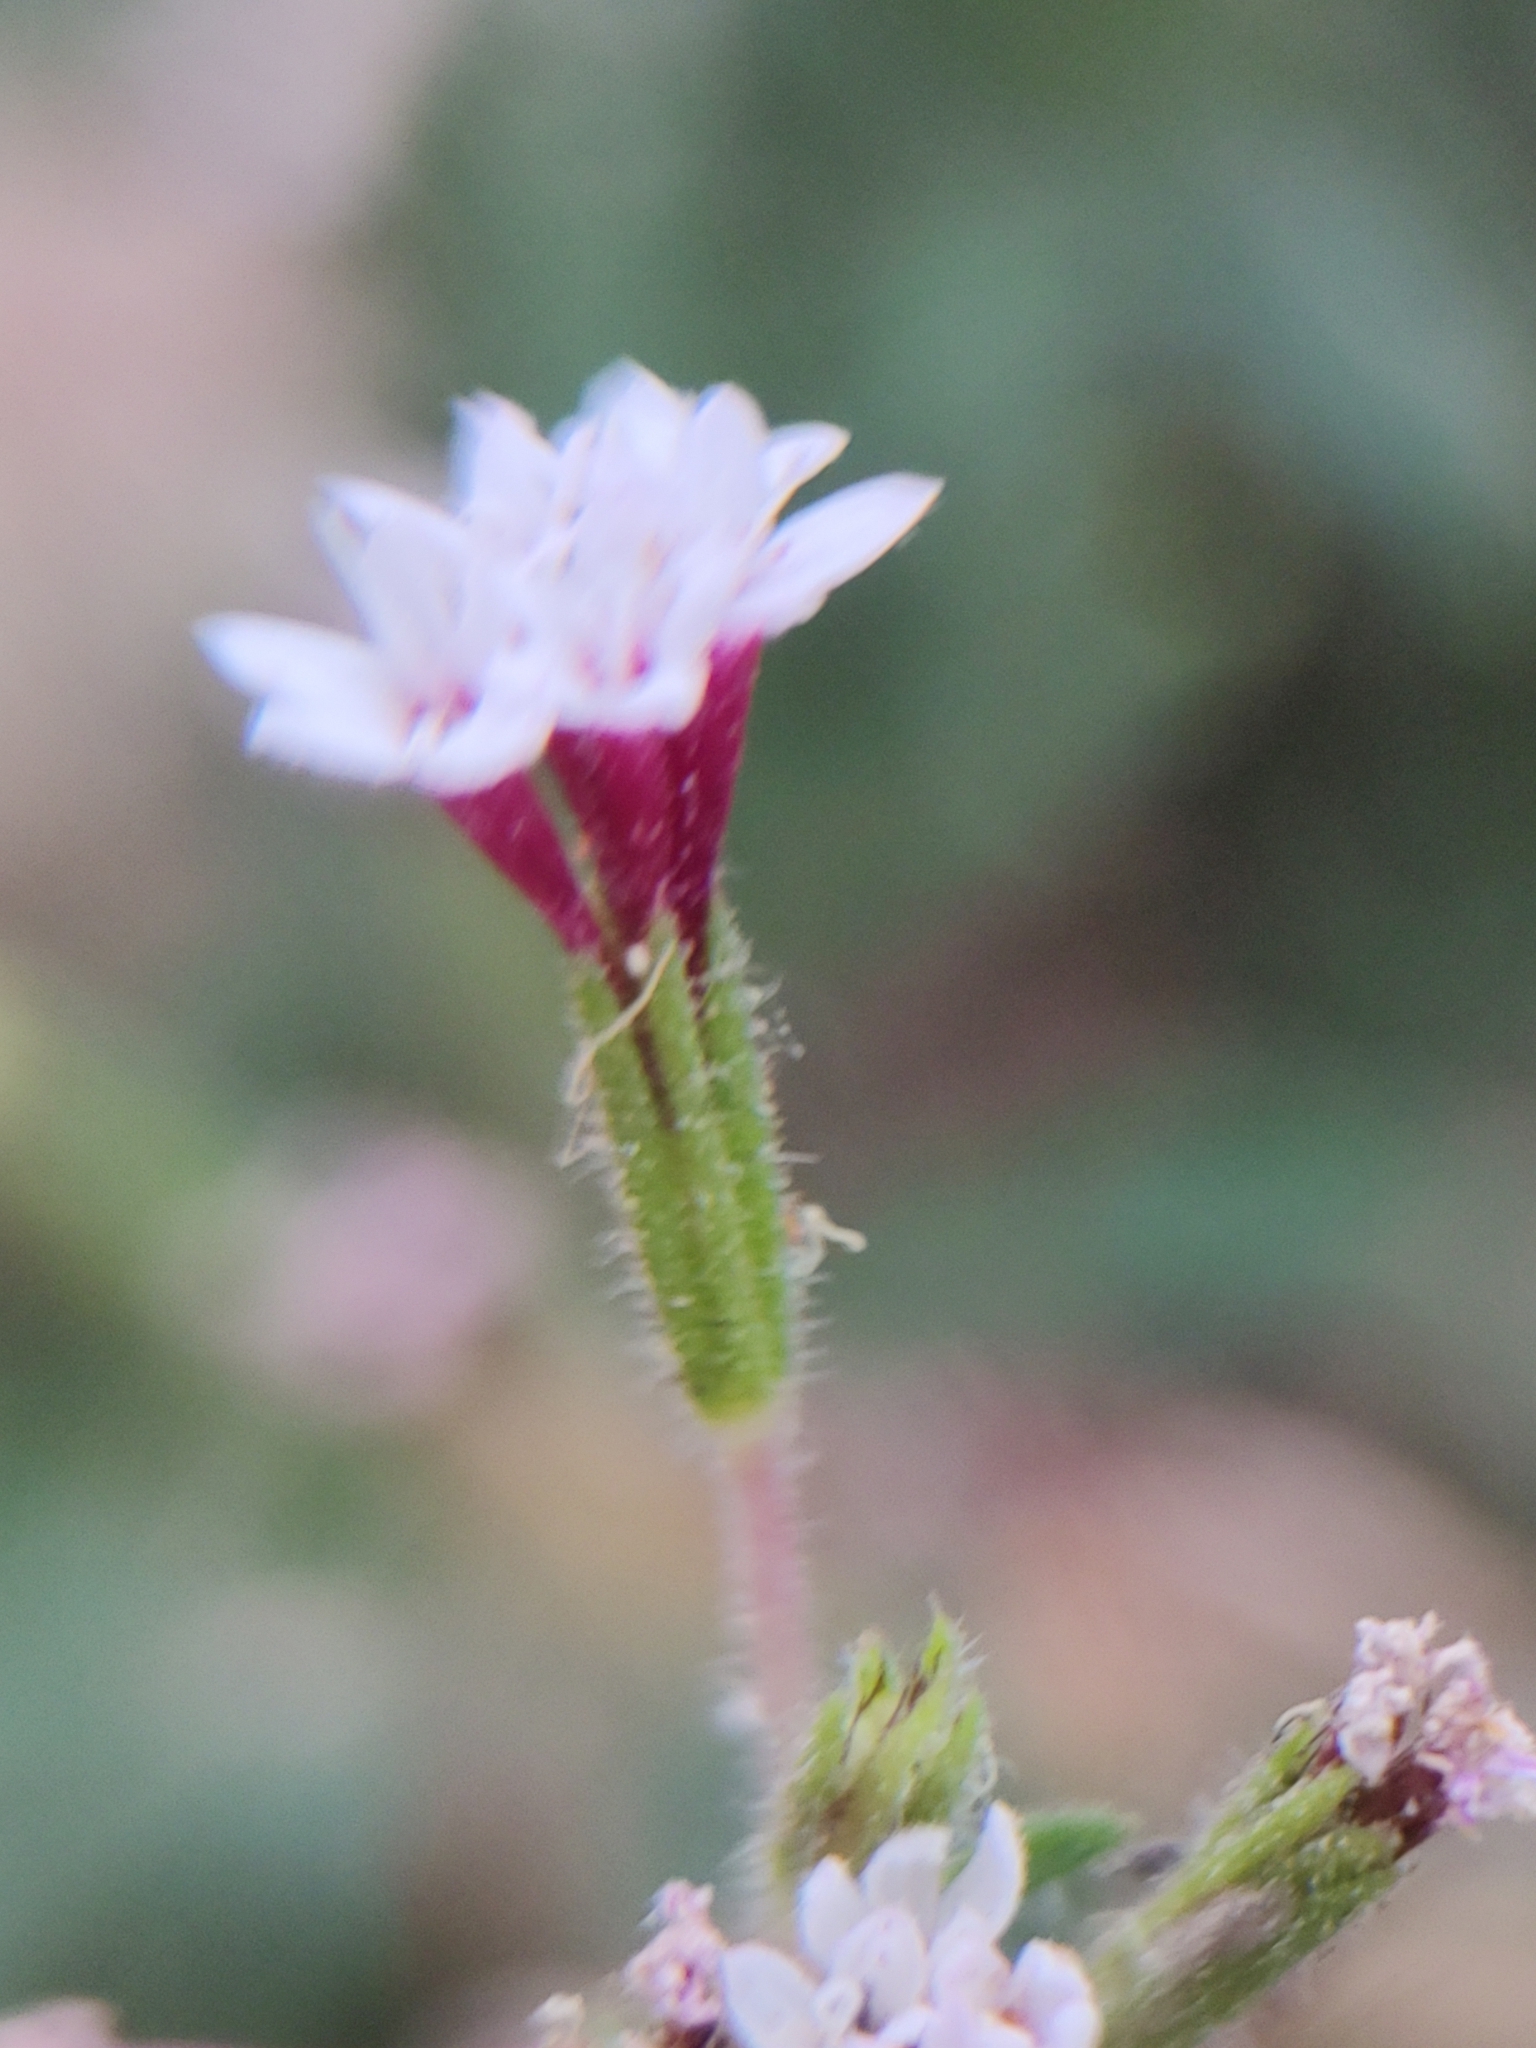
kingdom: Plantae
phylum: Tracheophyta
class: Magnoliopsida
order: Asterales
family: Asteraceae
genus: Stevia
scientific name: Stevia trifida
